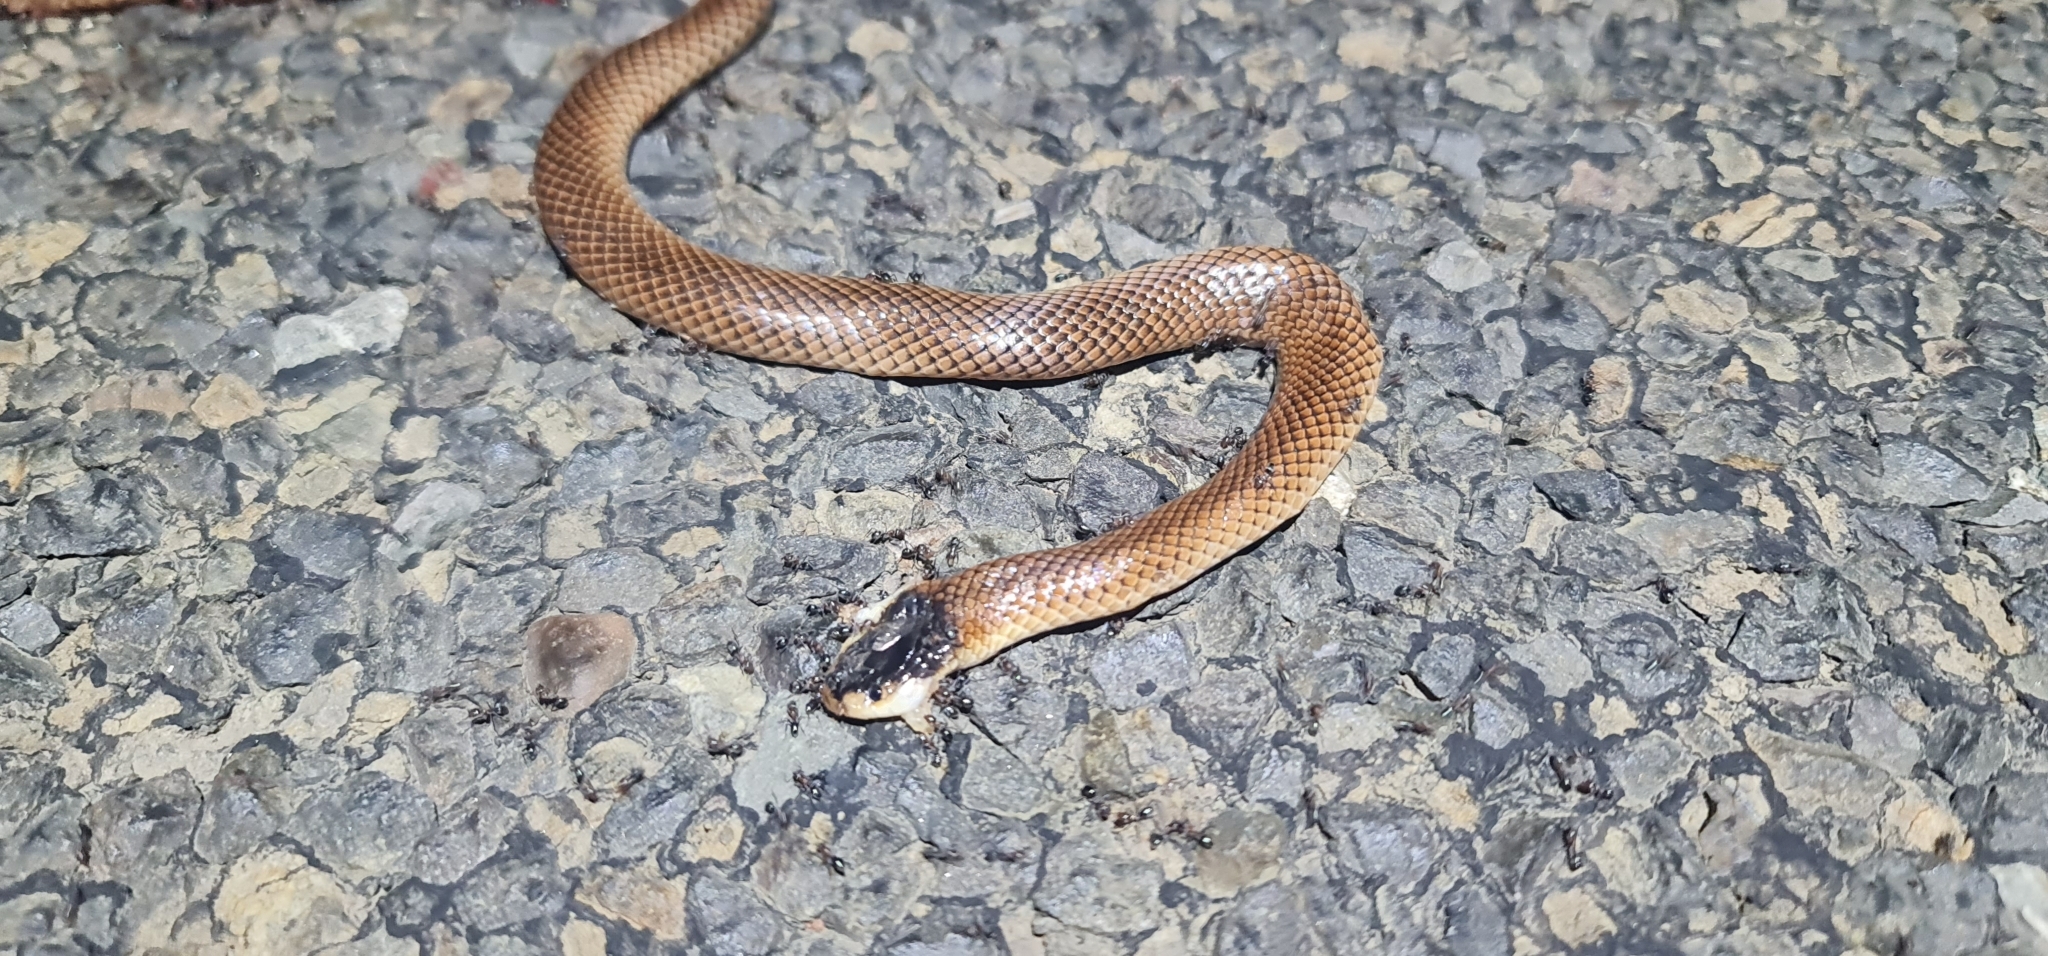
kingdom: Animalia
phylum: Chordata
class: Squamata
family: Elapidae
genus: Suta
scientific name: Suta dwyeri
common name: Variable black-naped snake
